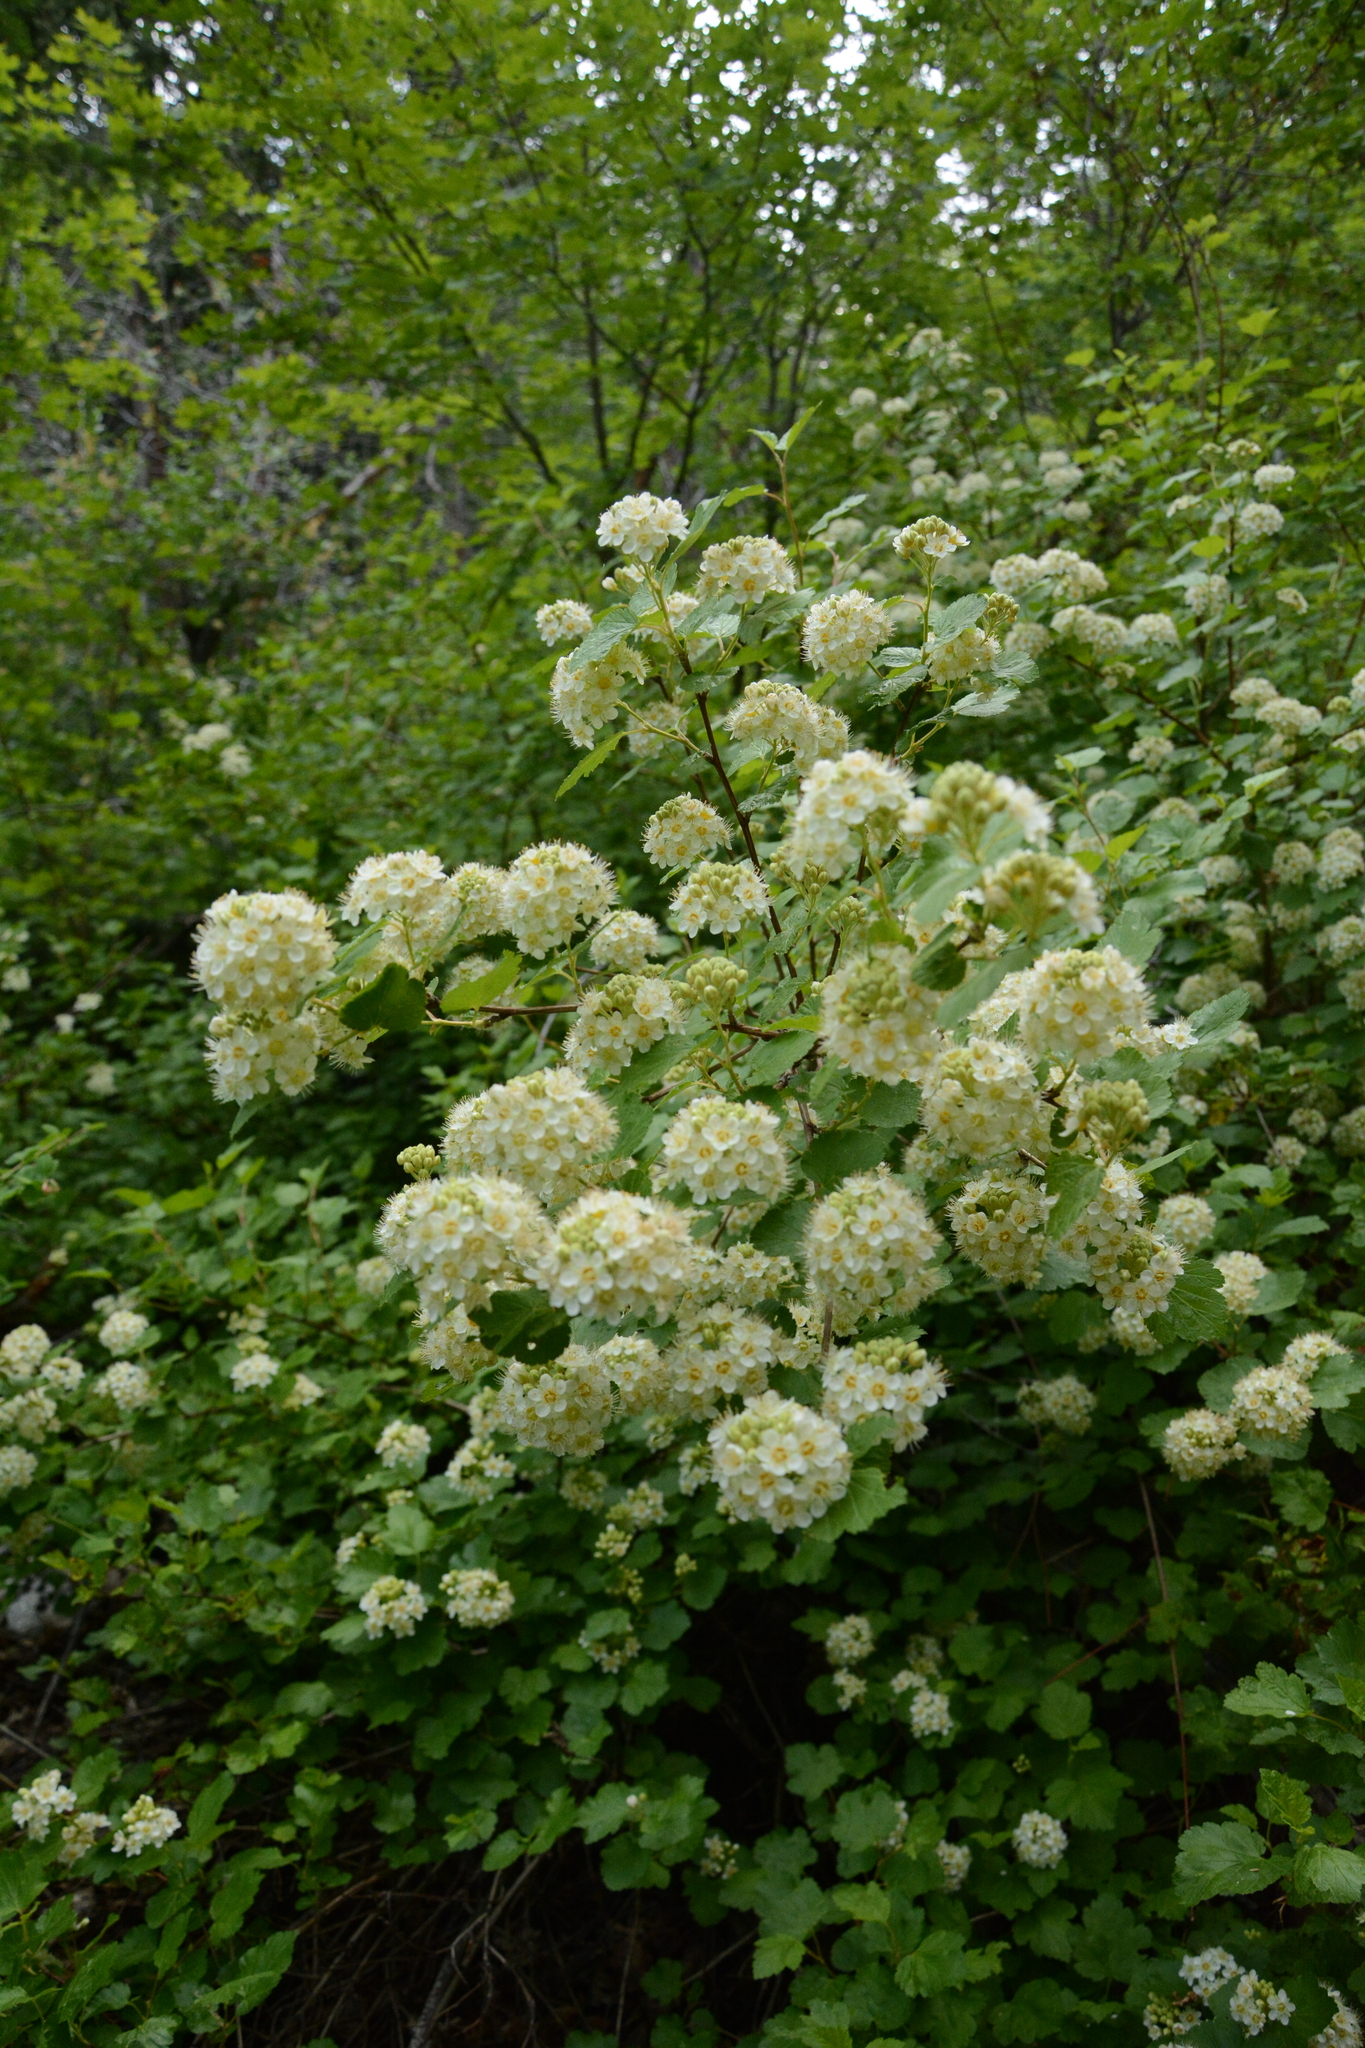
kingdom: Plantae
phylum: Tracheophyta
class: Magnoliopsida
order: Rosales
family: Rosaceae
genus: Physocarpus
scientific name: Physocarpus malvaceus
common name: Mallow ninebark
